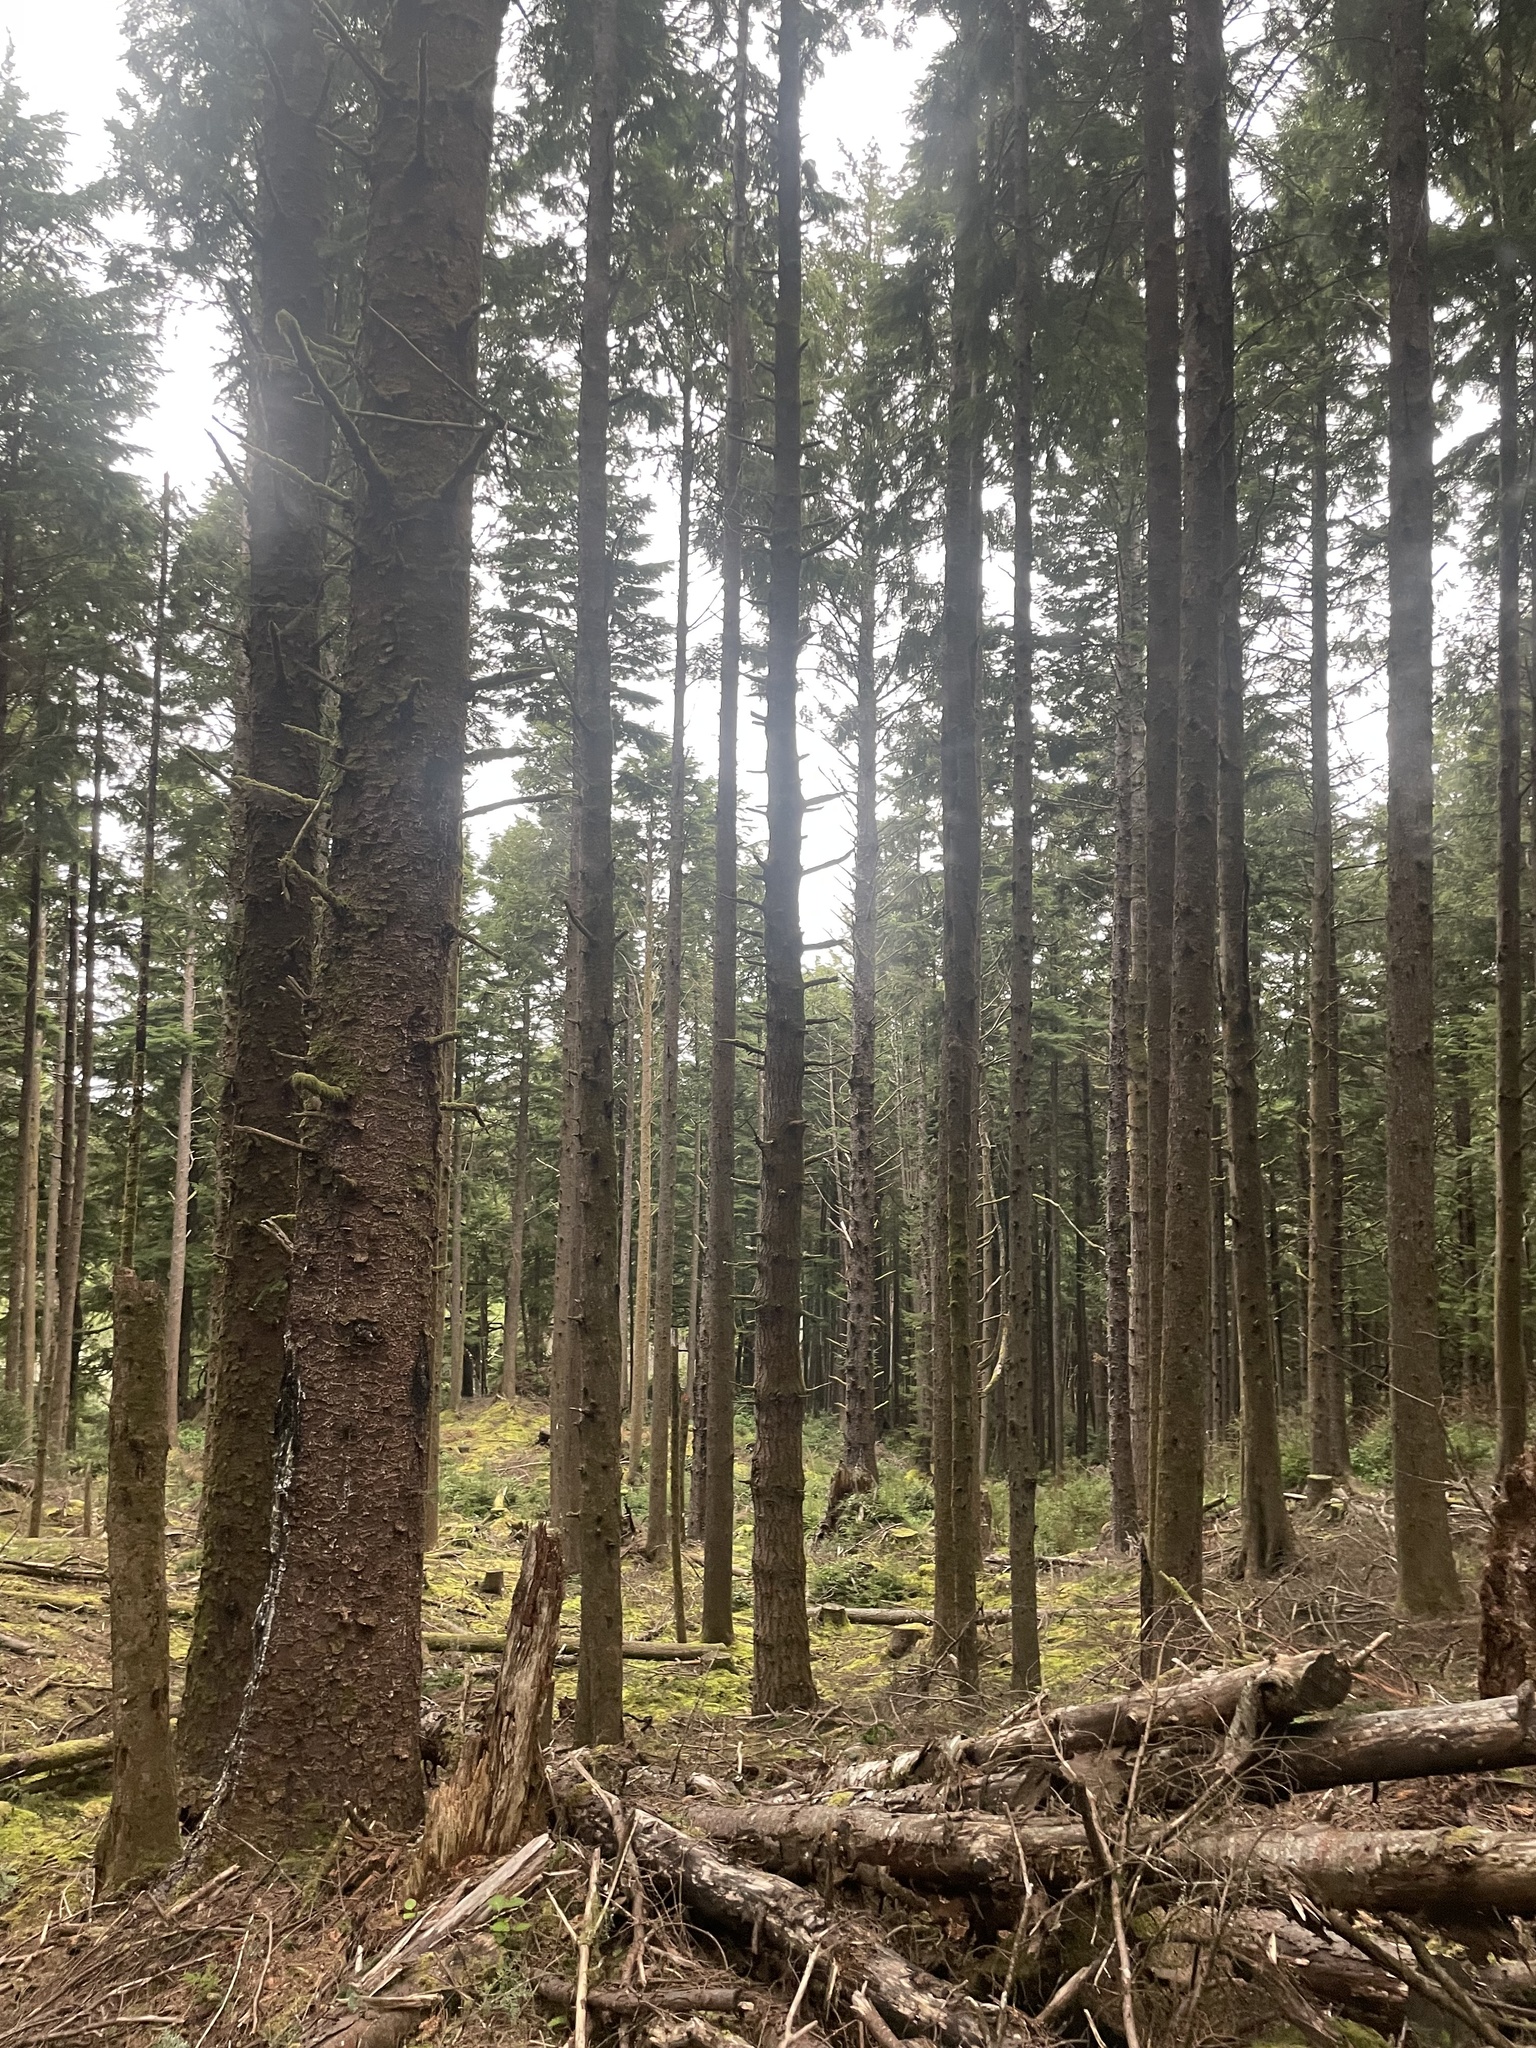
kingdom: Fungi
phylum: Basidiomycota
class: Agaricomycetes
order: Polyporales
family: Polyporaceae
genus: Ganoderma
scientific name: Ganoderma oregonense
